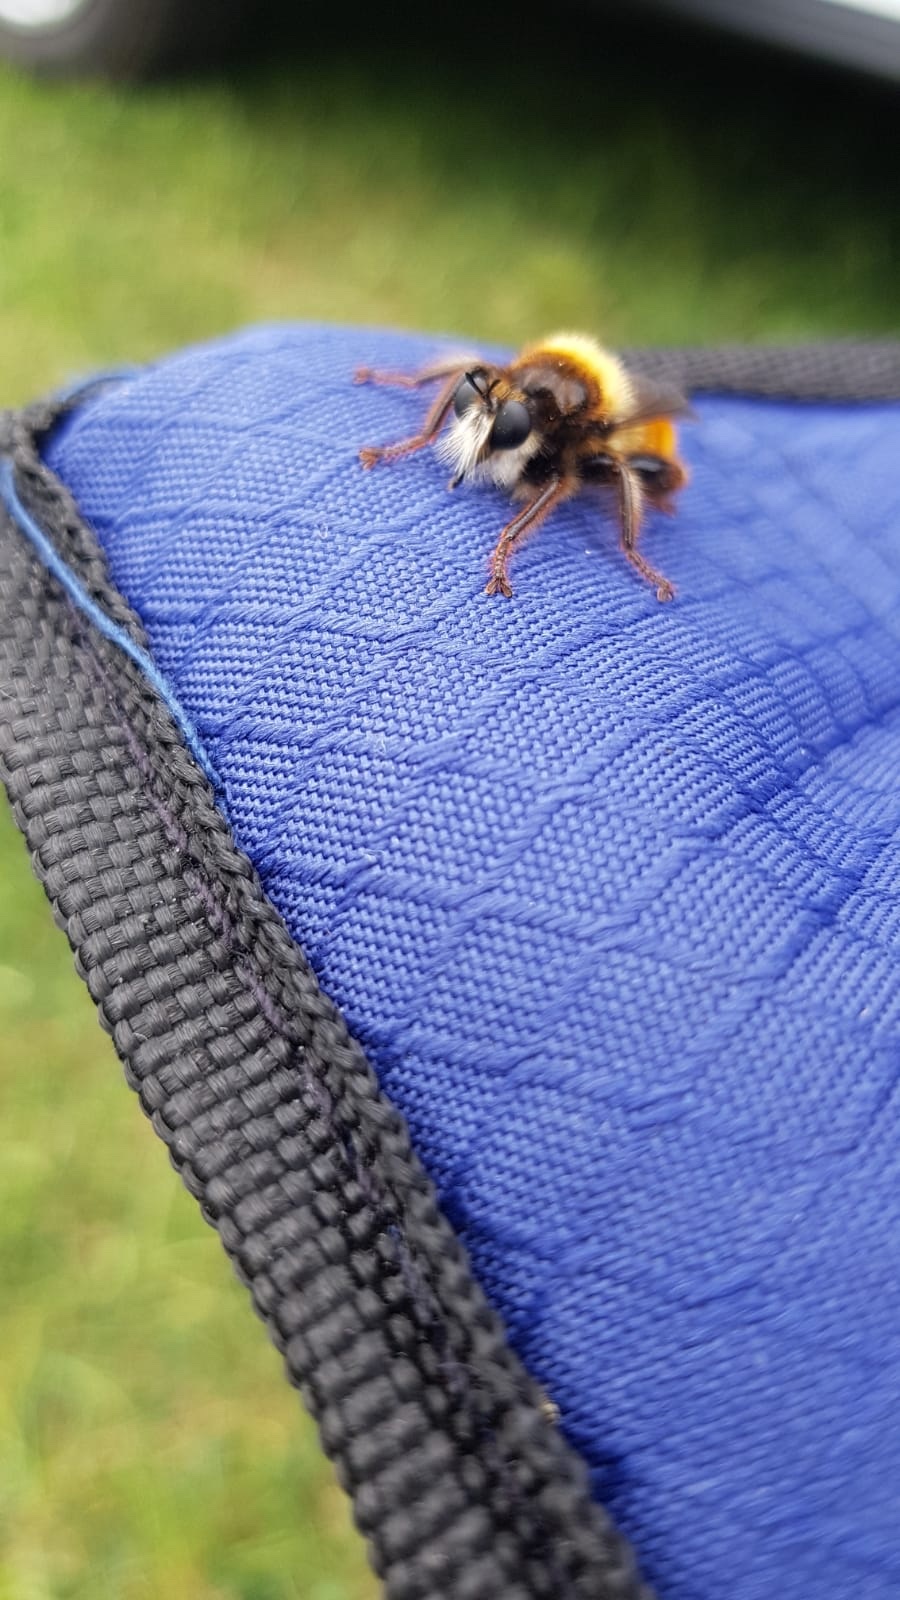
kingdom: Animalia
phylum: Arthropoda
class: Insecta
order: Diptera
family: Asilidae
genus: Laphria
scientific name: Laphria flava
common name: Bumblebee robberfly
